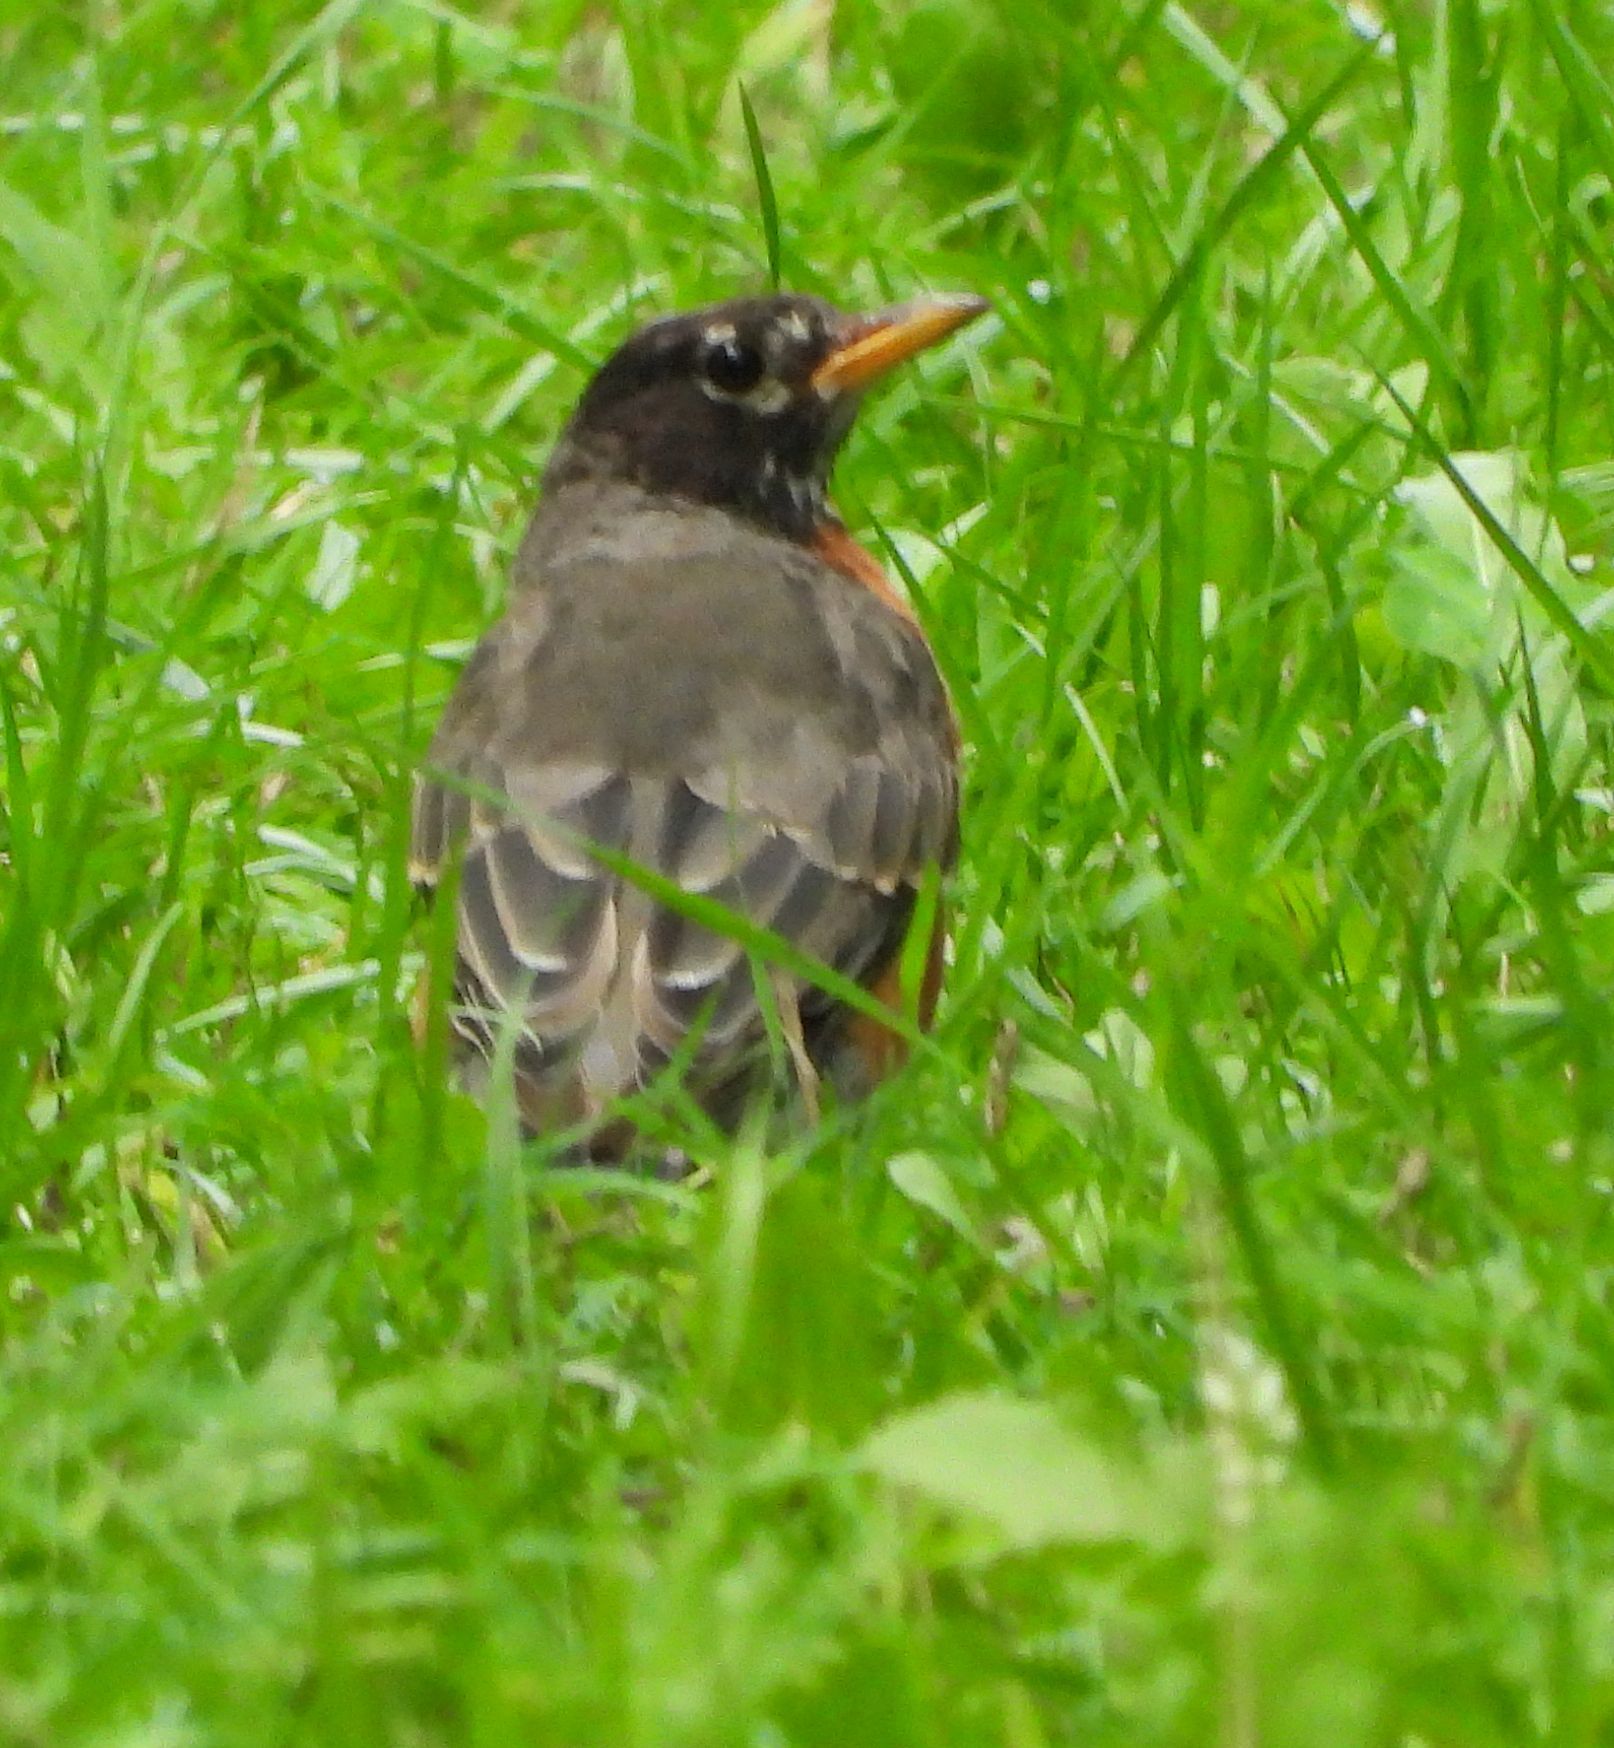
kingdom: Animalia
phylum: Chordata
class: Aves
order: Passeriformes
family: Turdidae
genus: Turdus
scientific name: Turdus migratorius
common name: American robin
